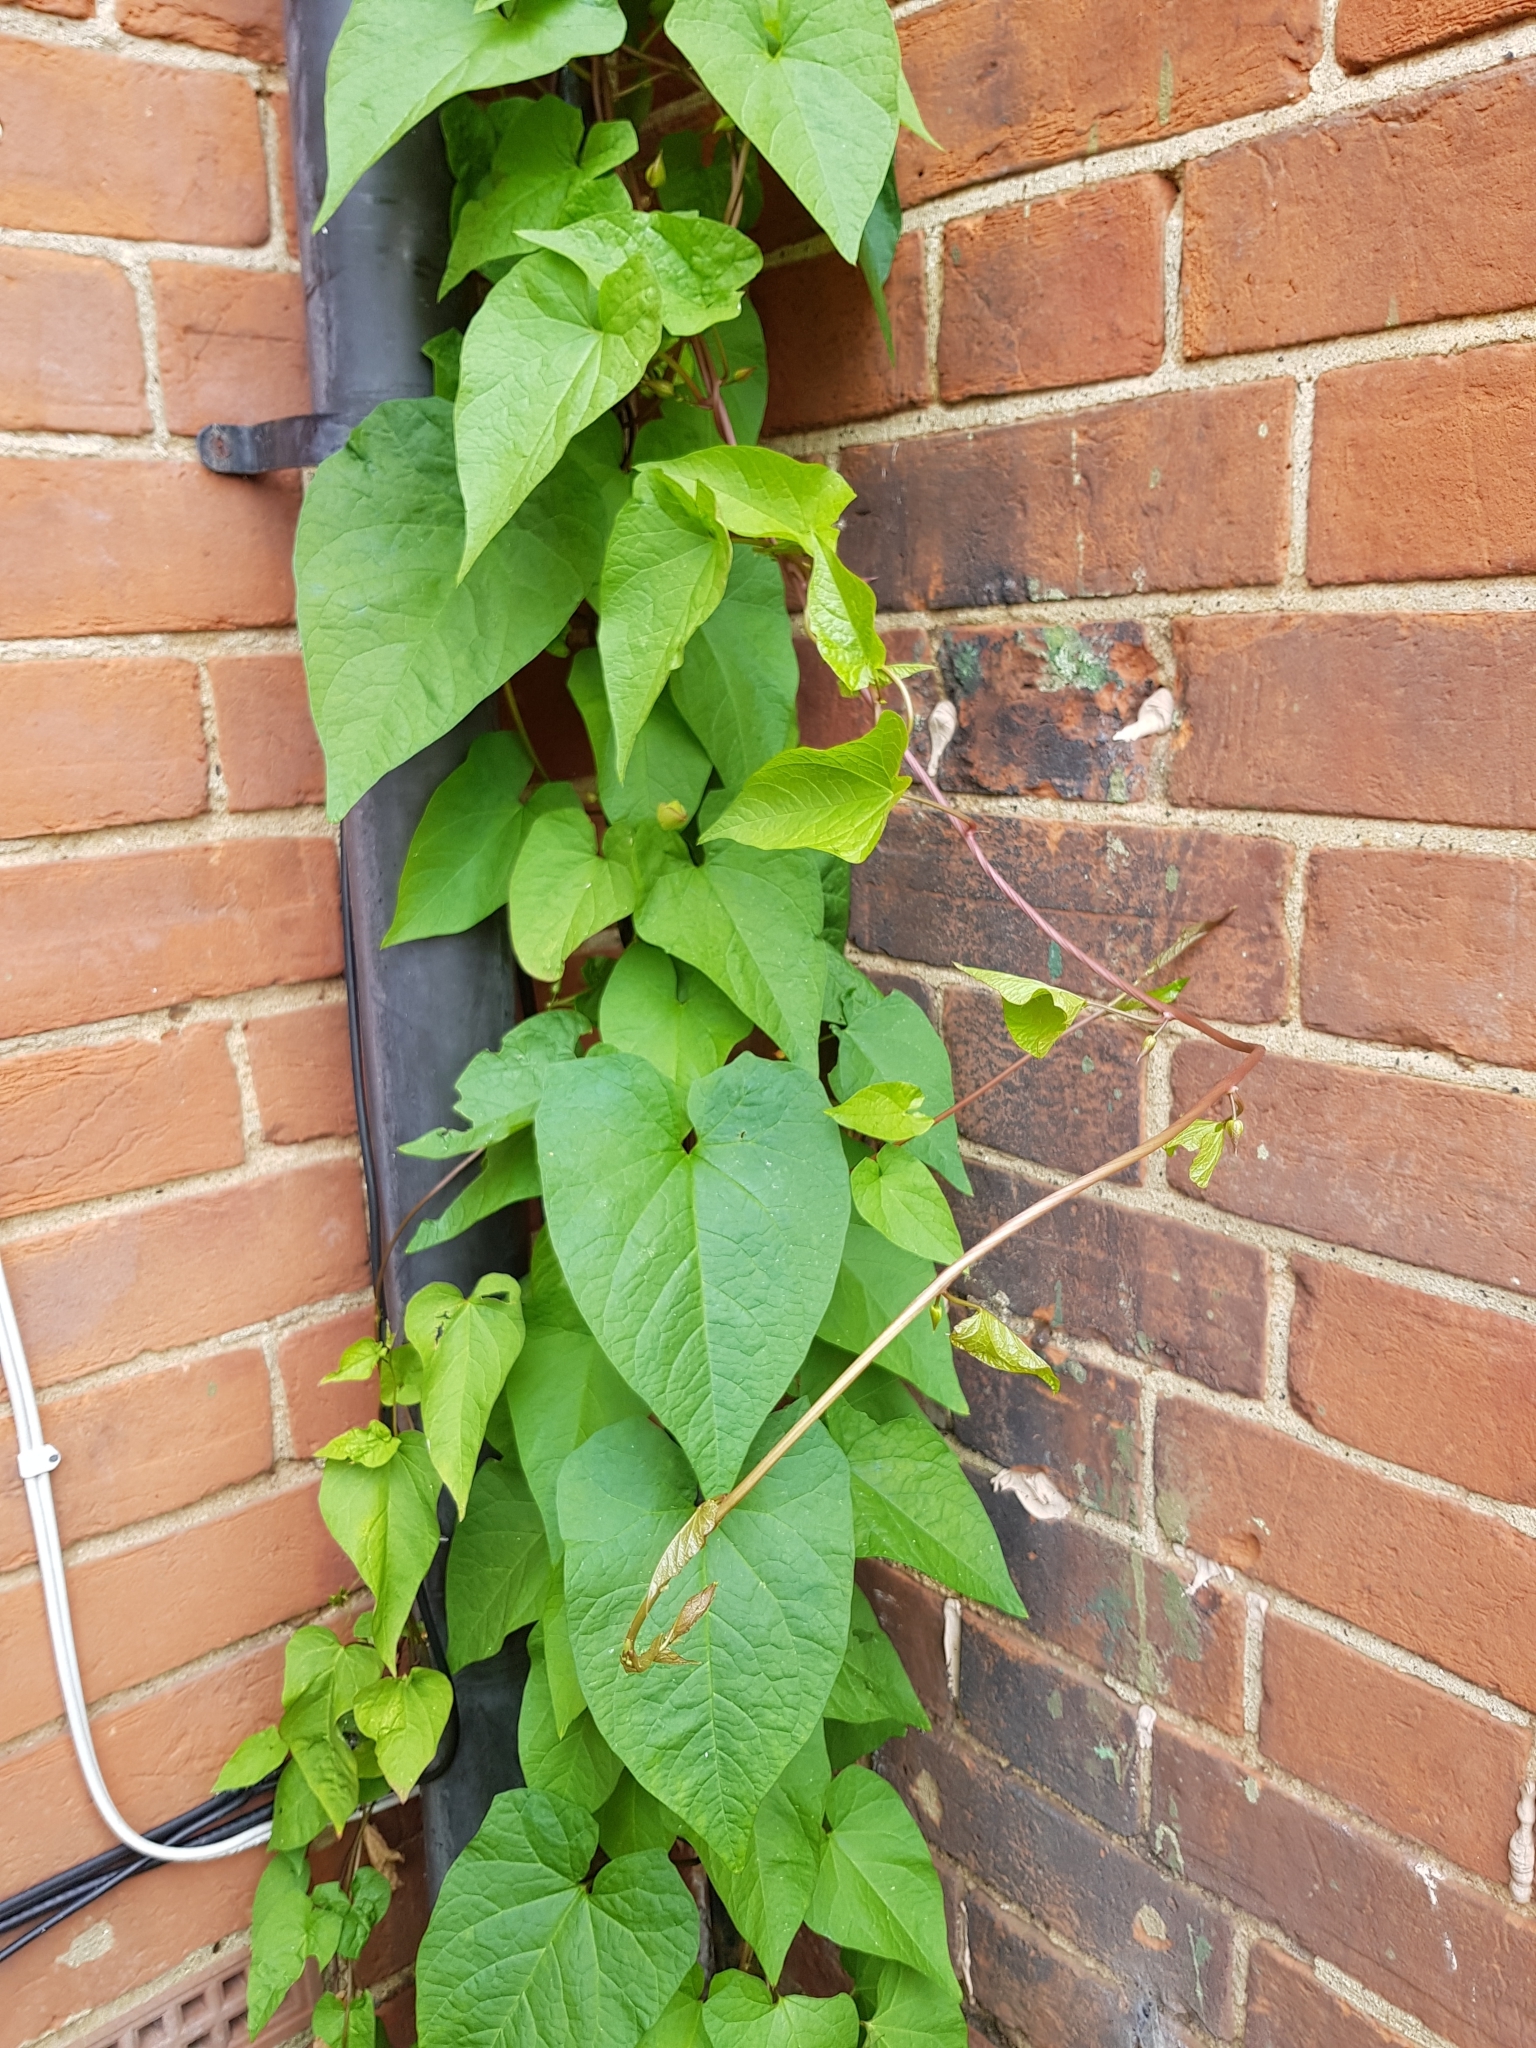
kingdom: Plantae
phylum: Tracheophyta
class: Magnoliopsida
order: Solanales
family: Convolvulaceae
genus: Calystegia
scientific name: Calystegia
